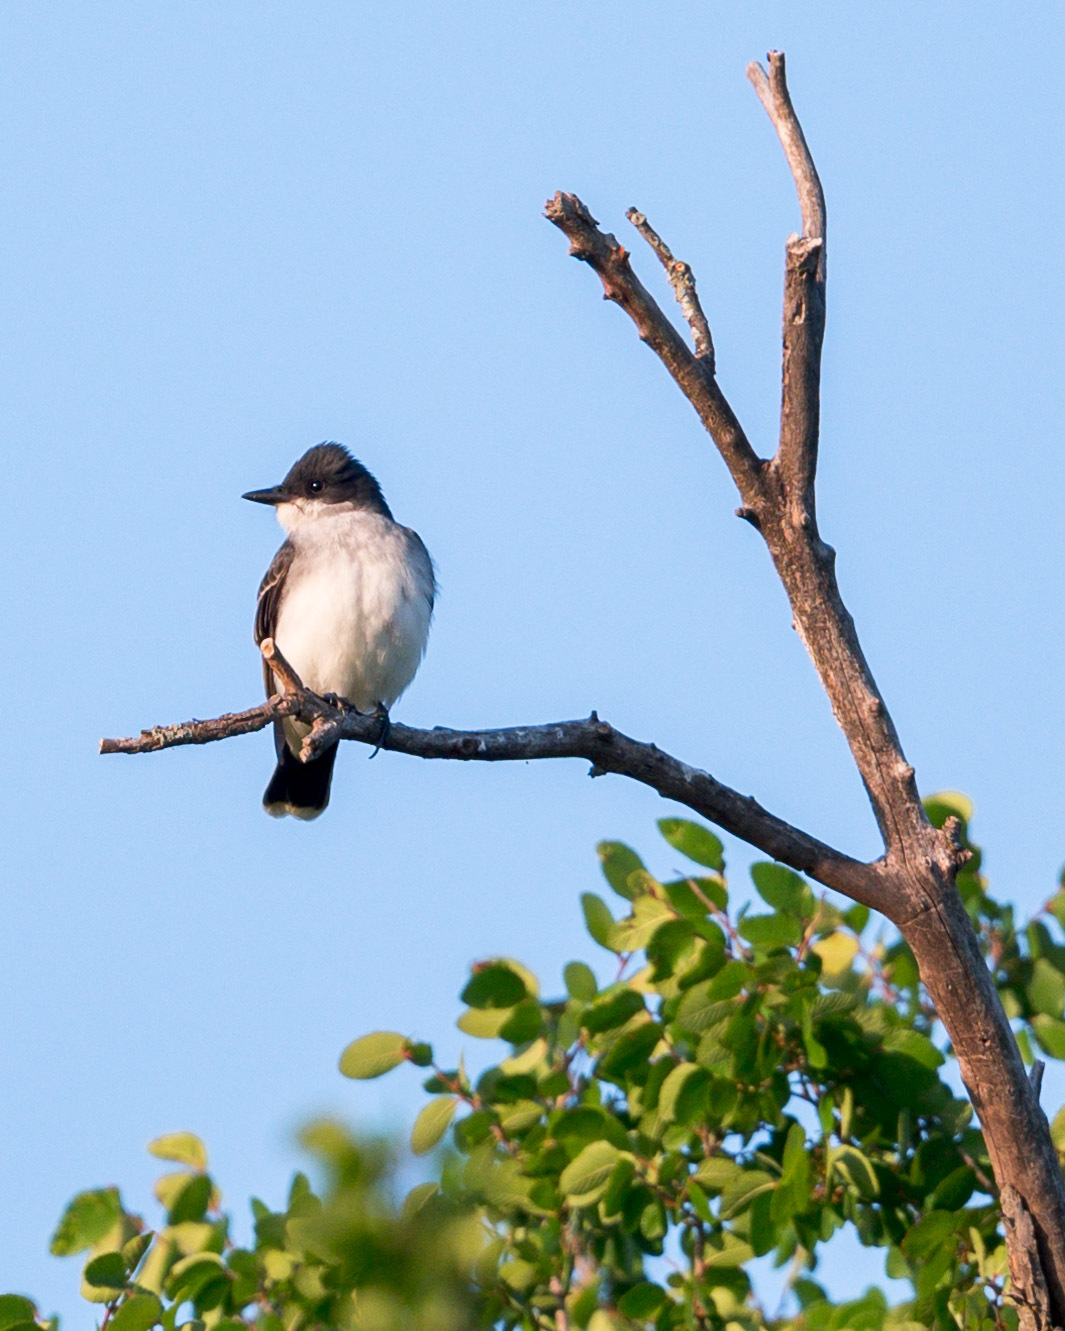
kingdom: Animalia
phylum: Chordata
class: Aves
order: Passeriformes
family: Tyrannidae
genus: Tyrannus
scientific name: Tyrannus tyrannus
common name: Eastern kingbird
